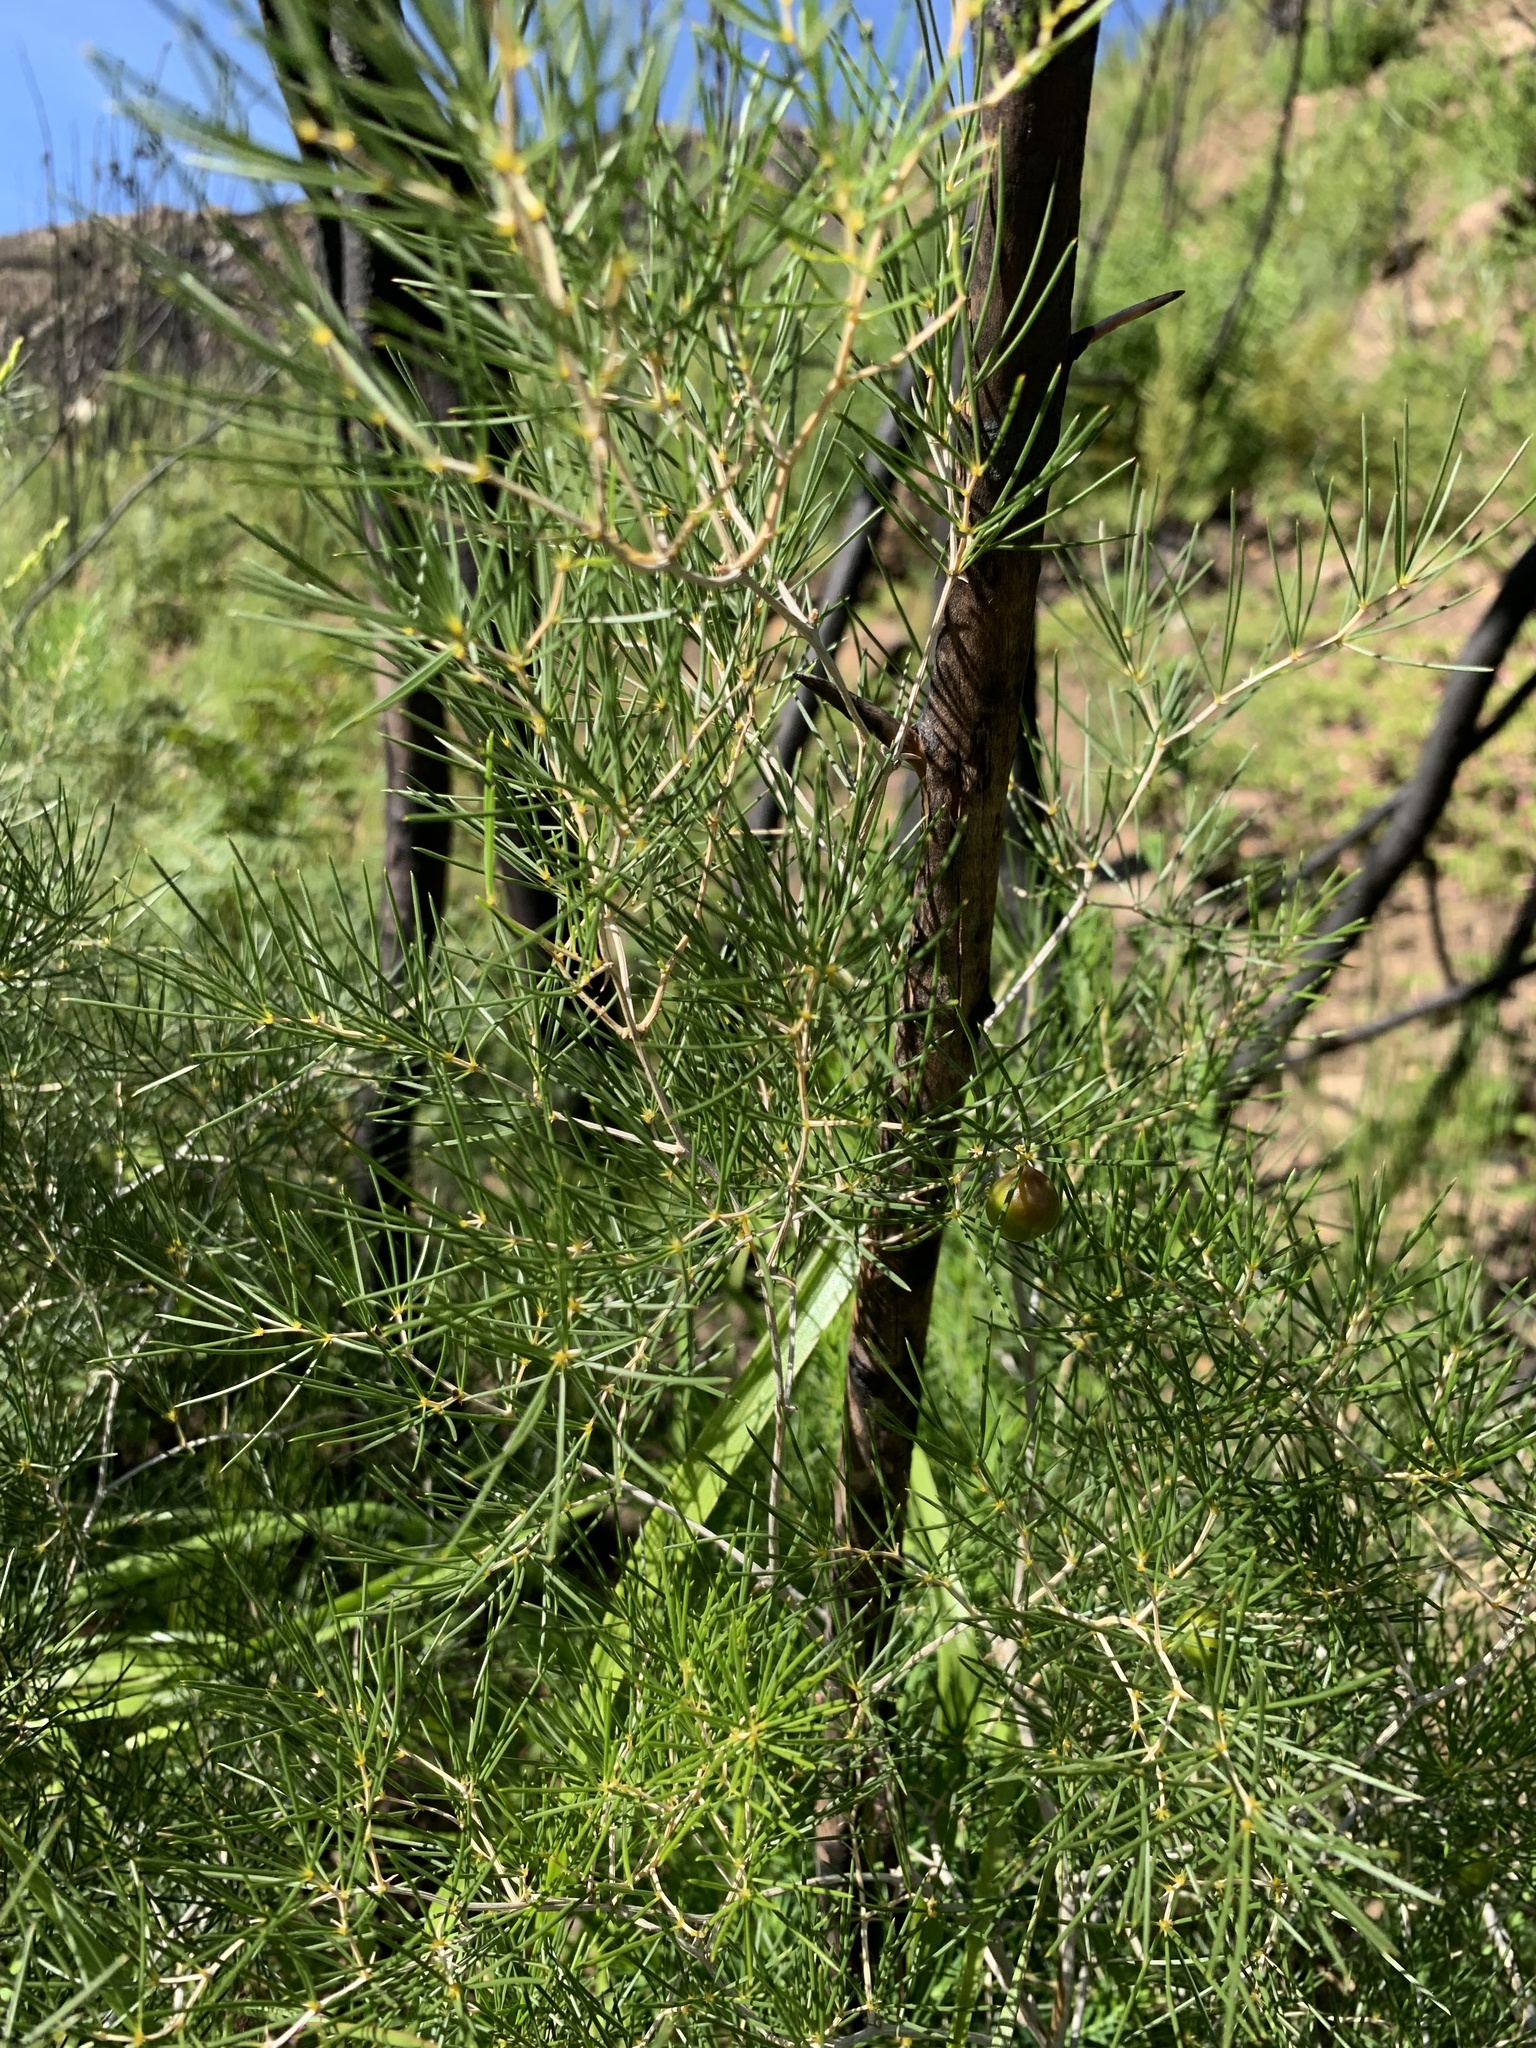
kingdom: Plantae
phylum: Tracheophyta
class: Liliopsida
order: Asparagales
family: Asparagaceae
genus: Asparagus
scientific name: Asparagus lignosus
